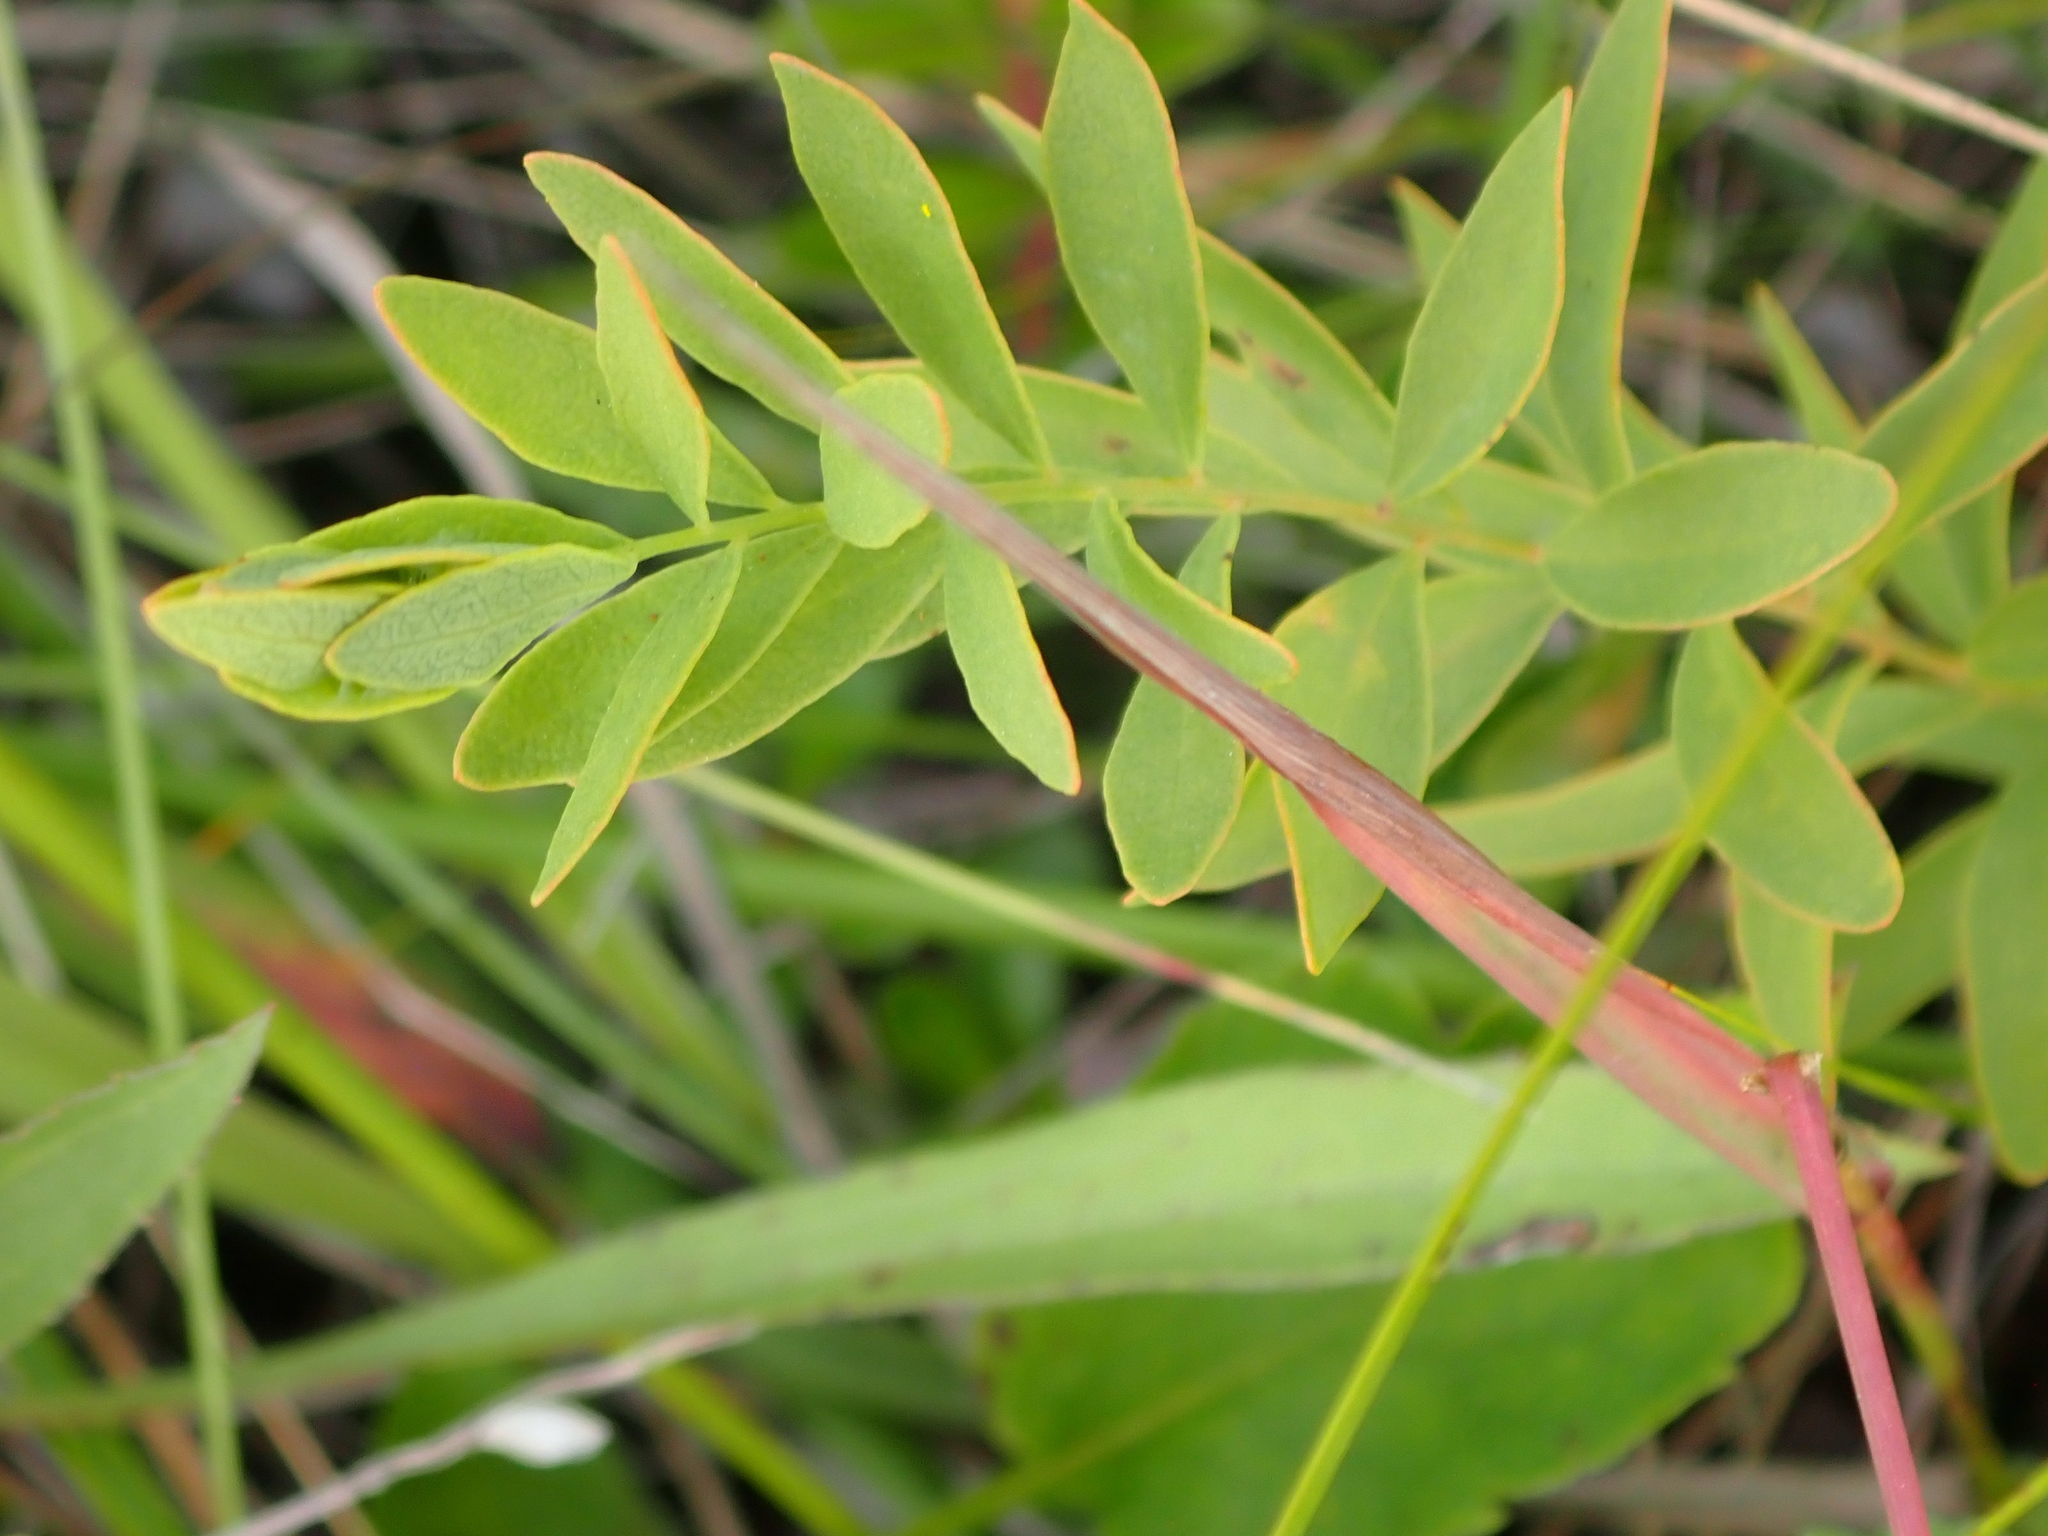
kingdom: Plantae
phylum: Tracheophyta
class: Magnoliopsida
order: Santalales
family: Comandraceae
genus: Comandra
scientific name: Comandra umbellata
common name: Bastard toadflax
